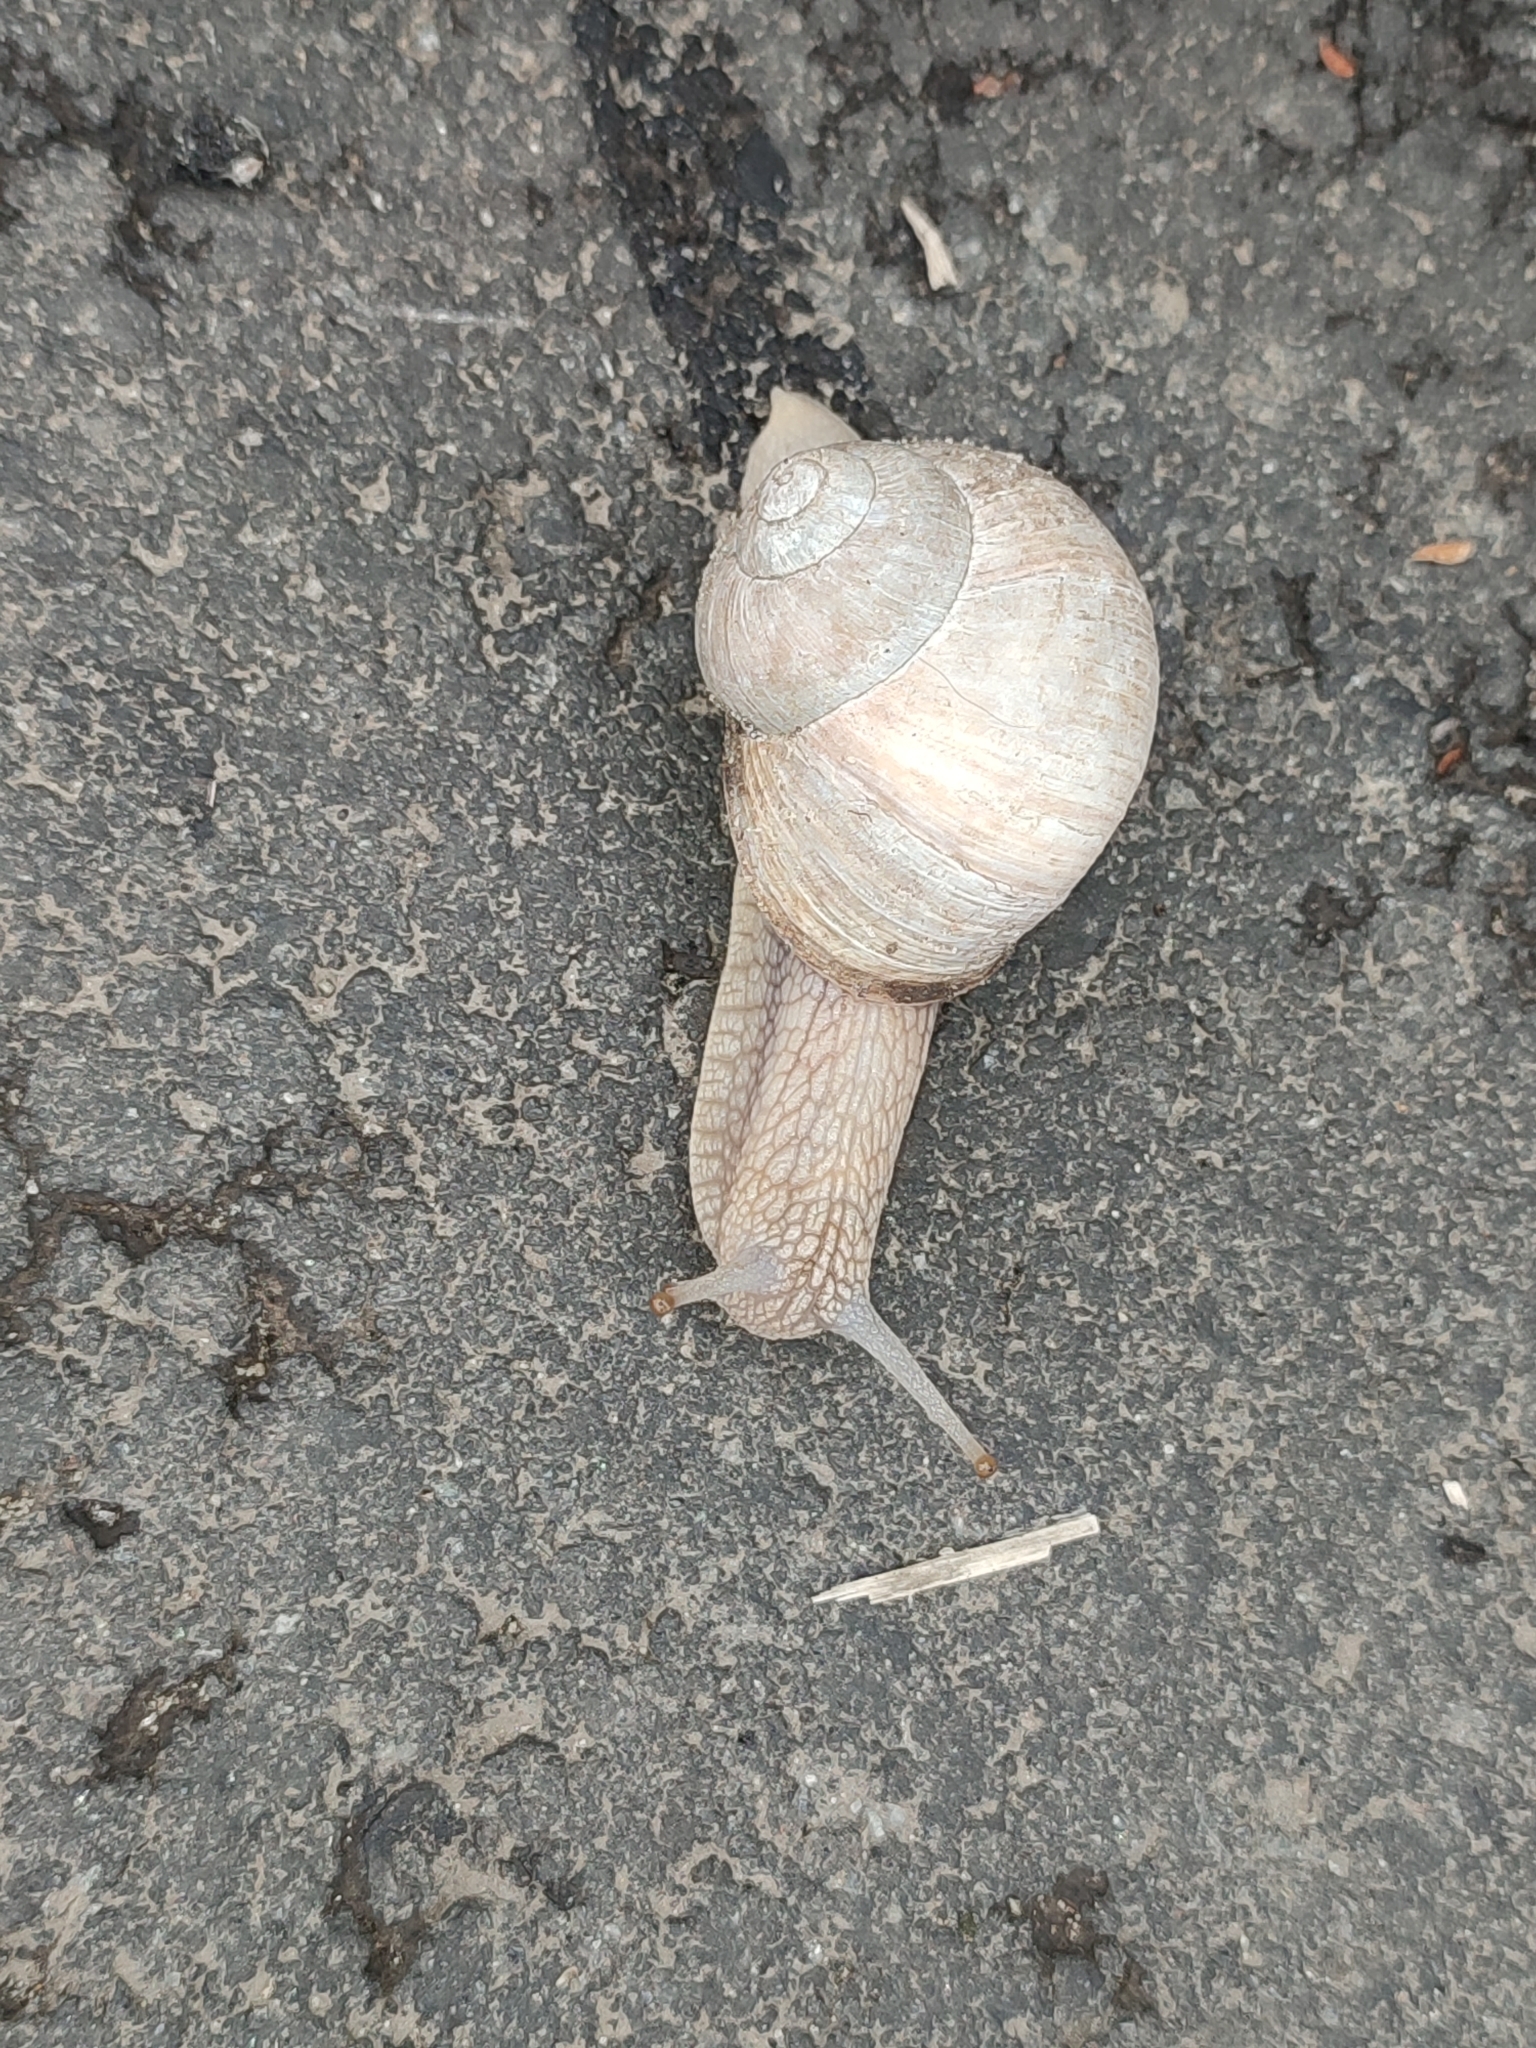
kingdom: Animalia
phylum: Mollusca
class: Gastropoda
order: Stylommatophora
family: Helicidae
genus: Helix
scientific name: Helix pomatia
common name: Roman snail
